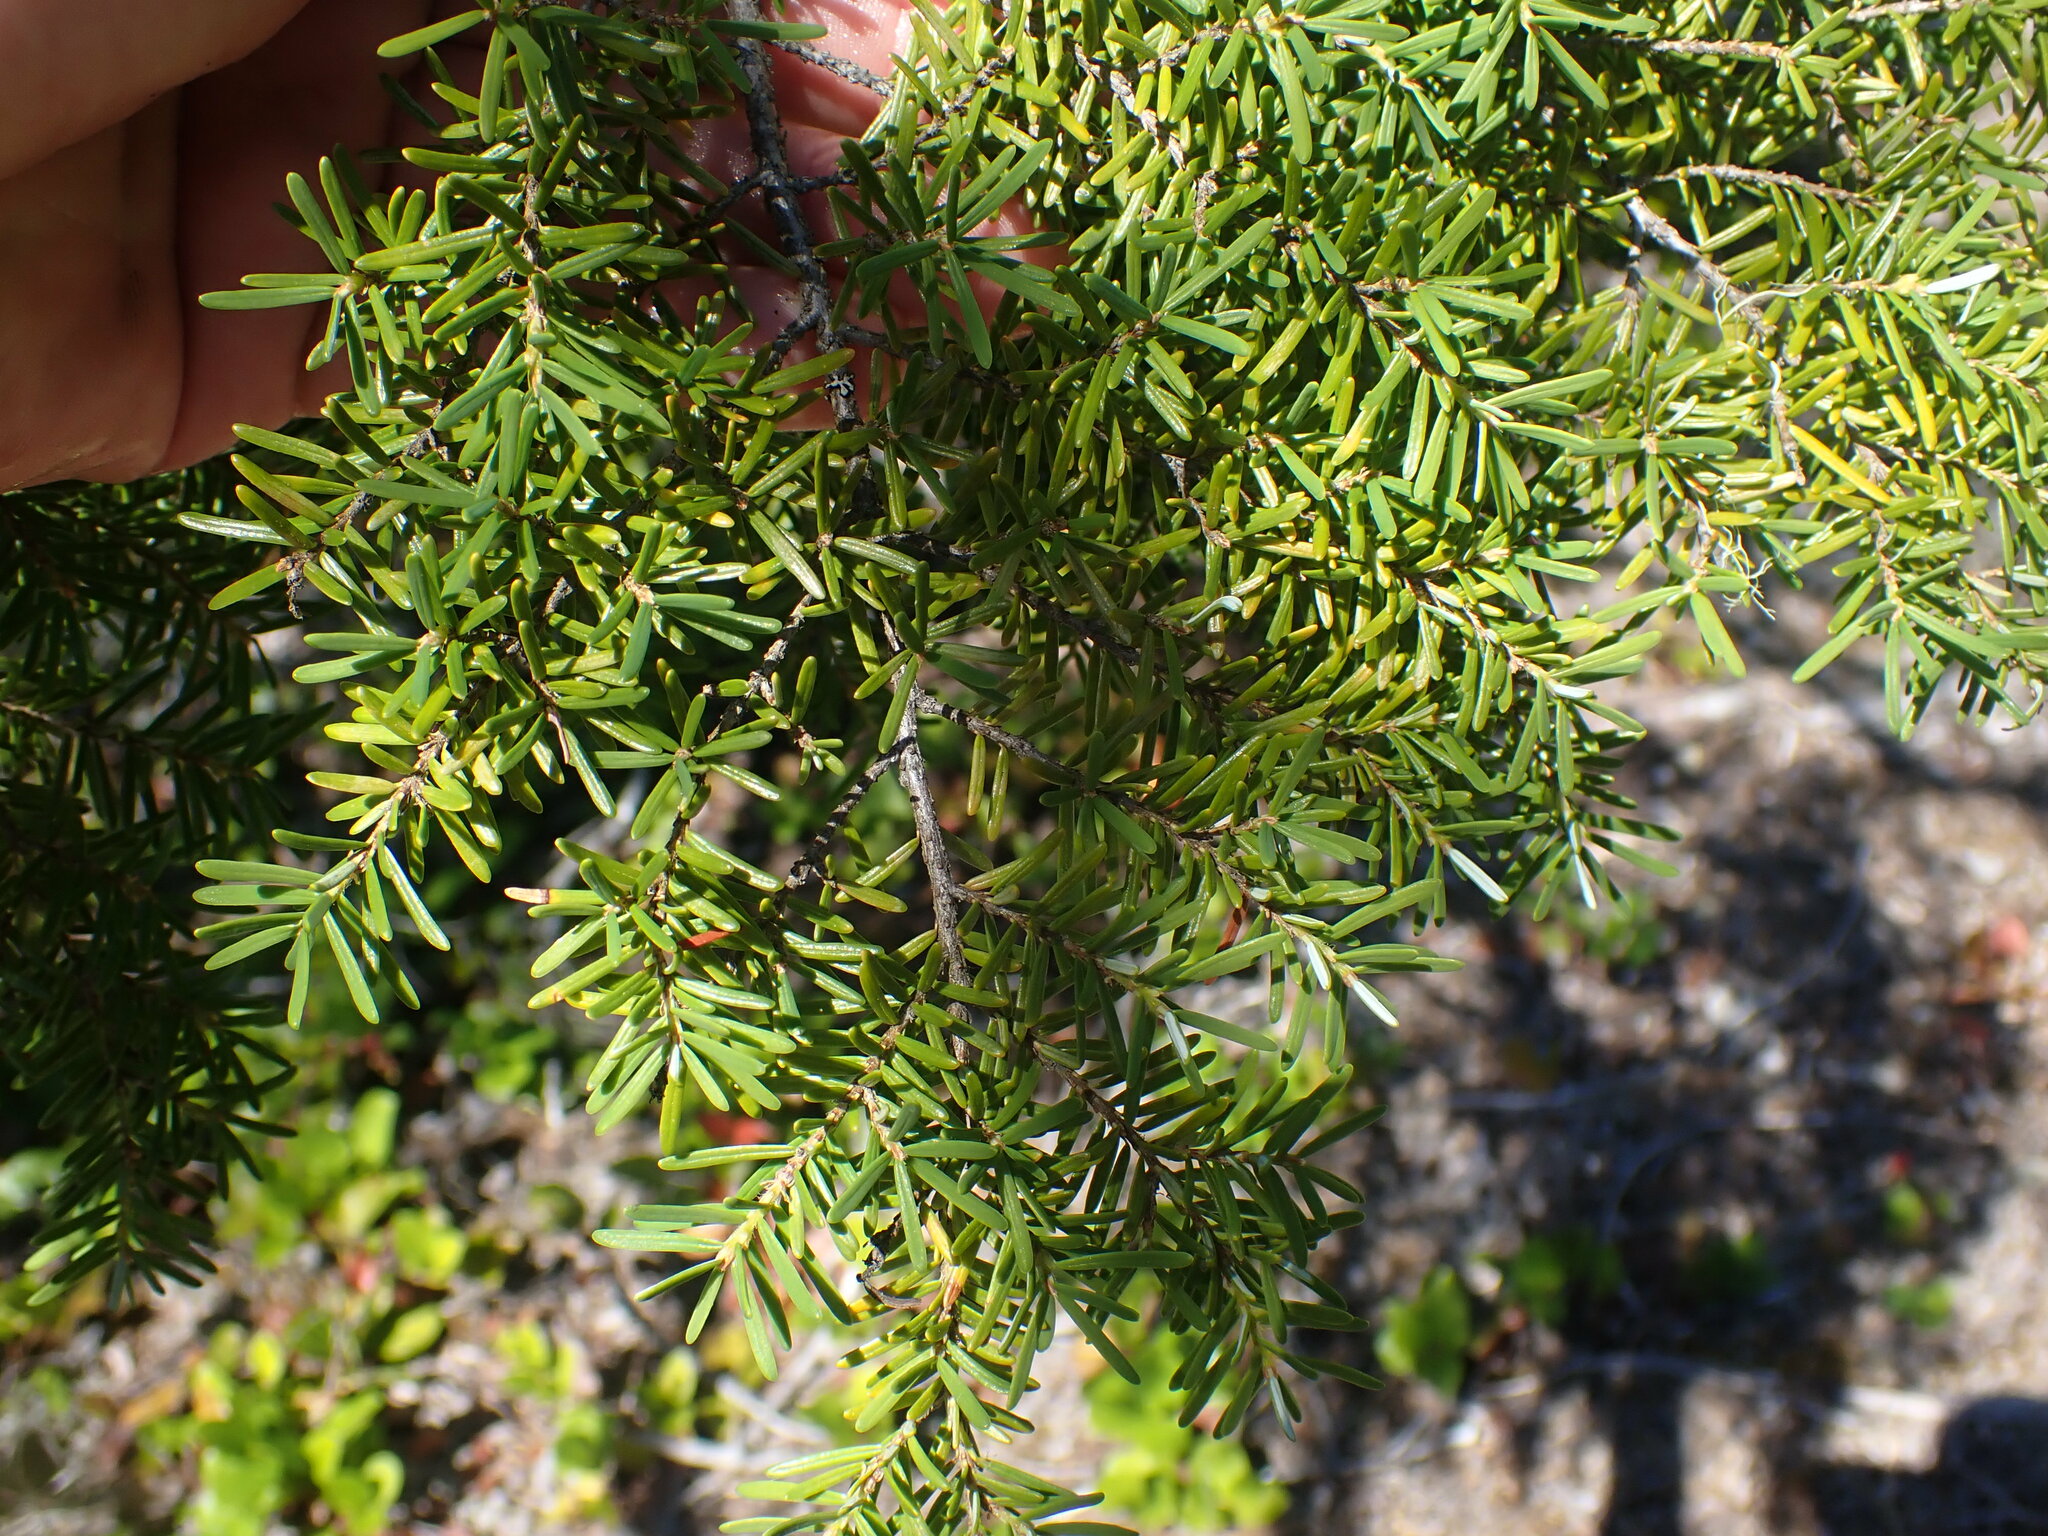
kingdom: Plantae
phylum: Tracheophyta
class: Pinopsida
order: Pinales
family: Pinaceae
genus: Tsuga
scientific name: Tsuga heterophylla
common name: Western hemlock
